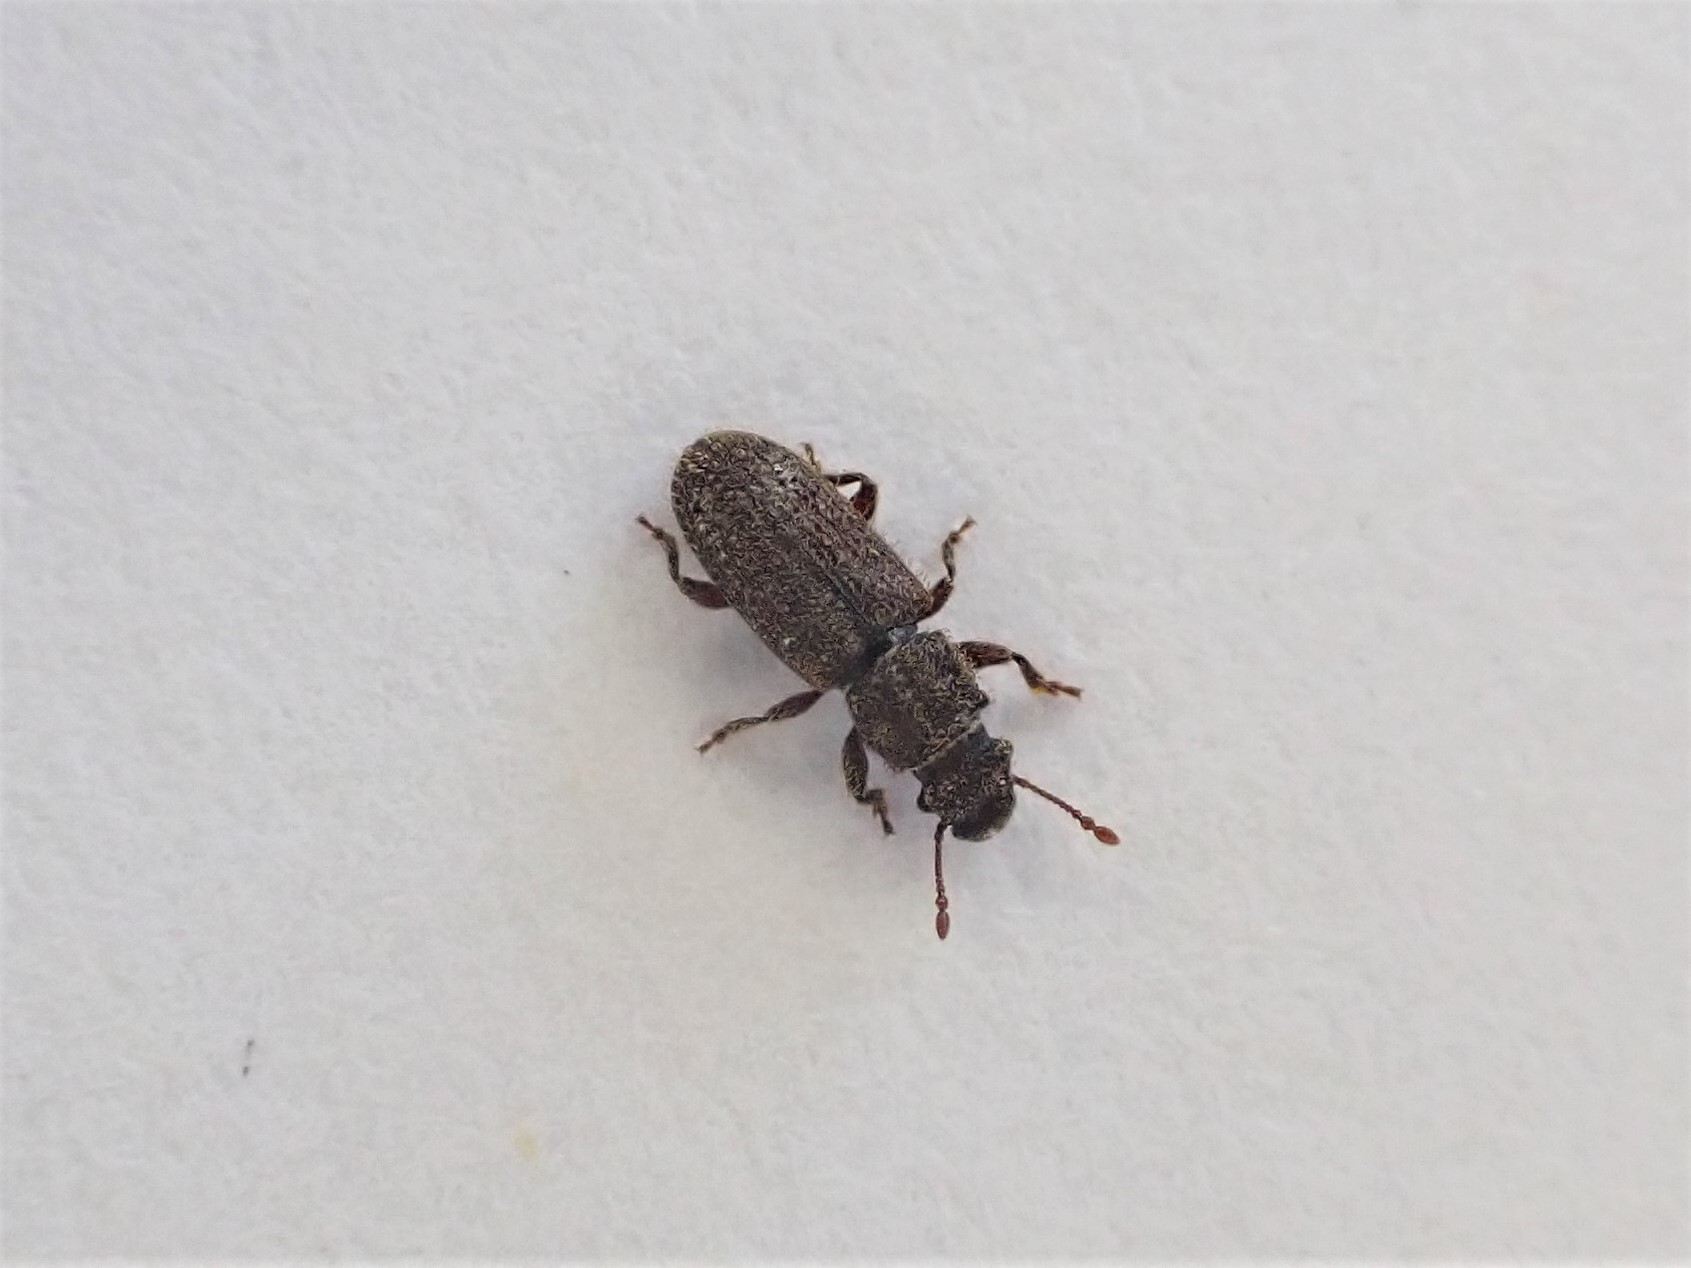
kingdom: Animalia
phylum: Arthropoda
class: Insecta
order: Coleoptera
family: Belidae
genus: Aralius
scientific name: Aralius wollastoni
